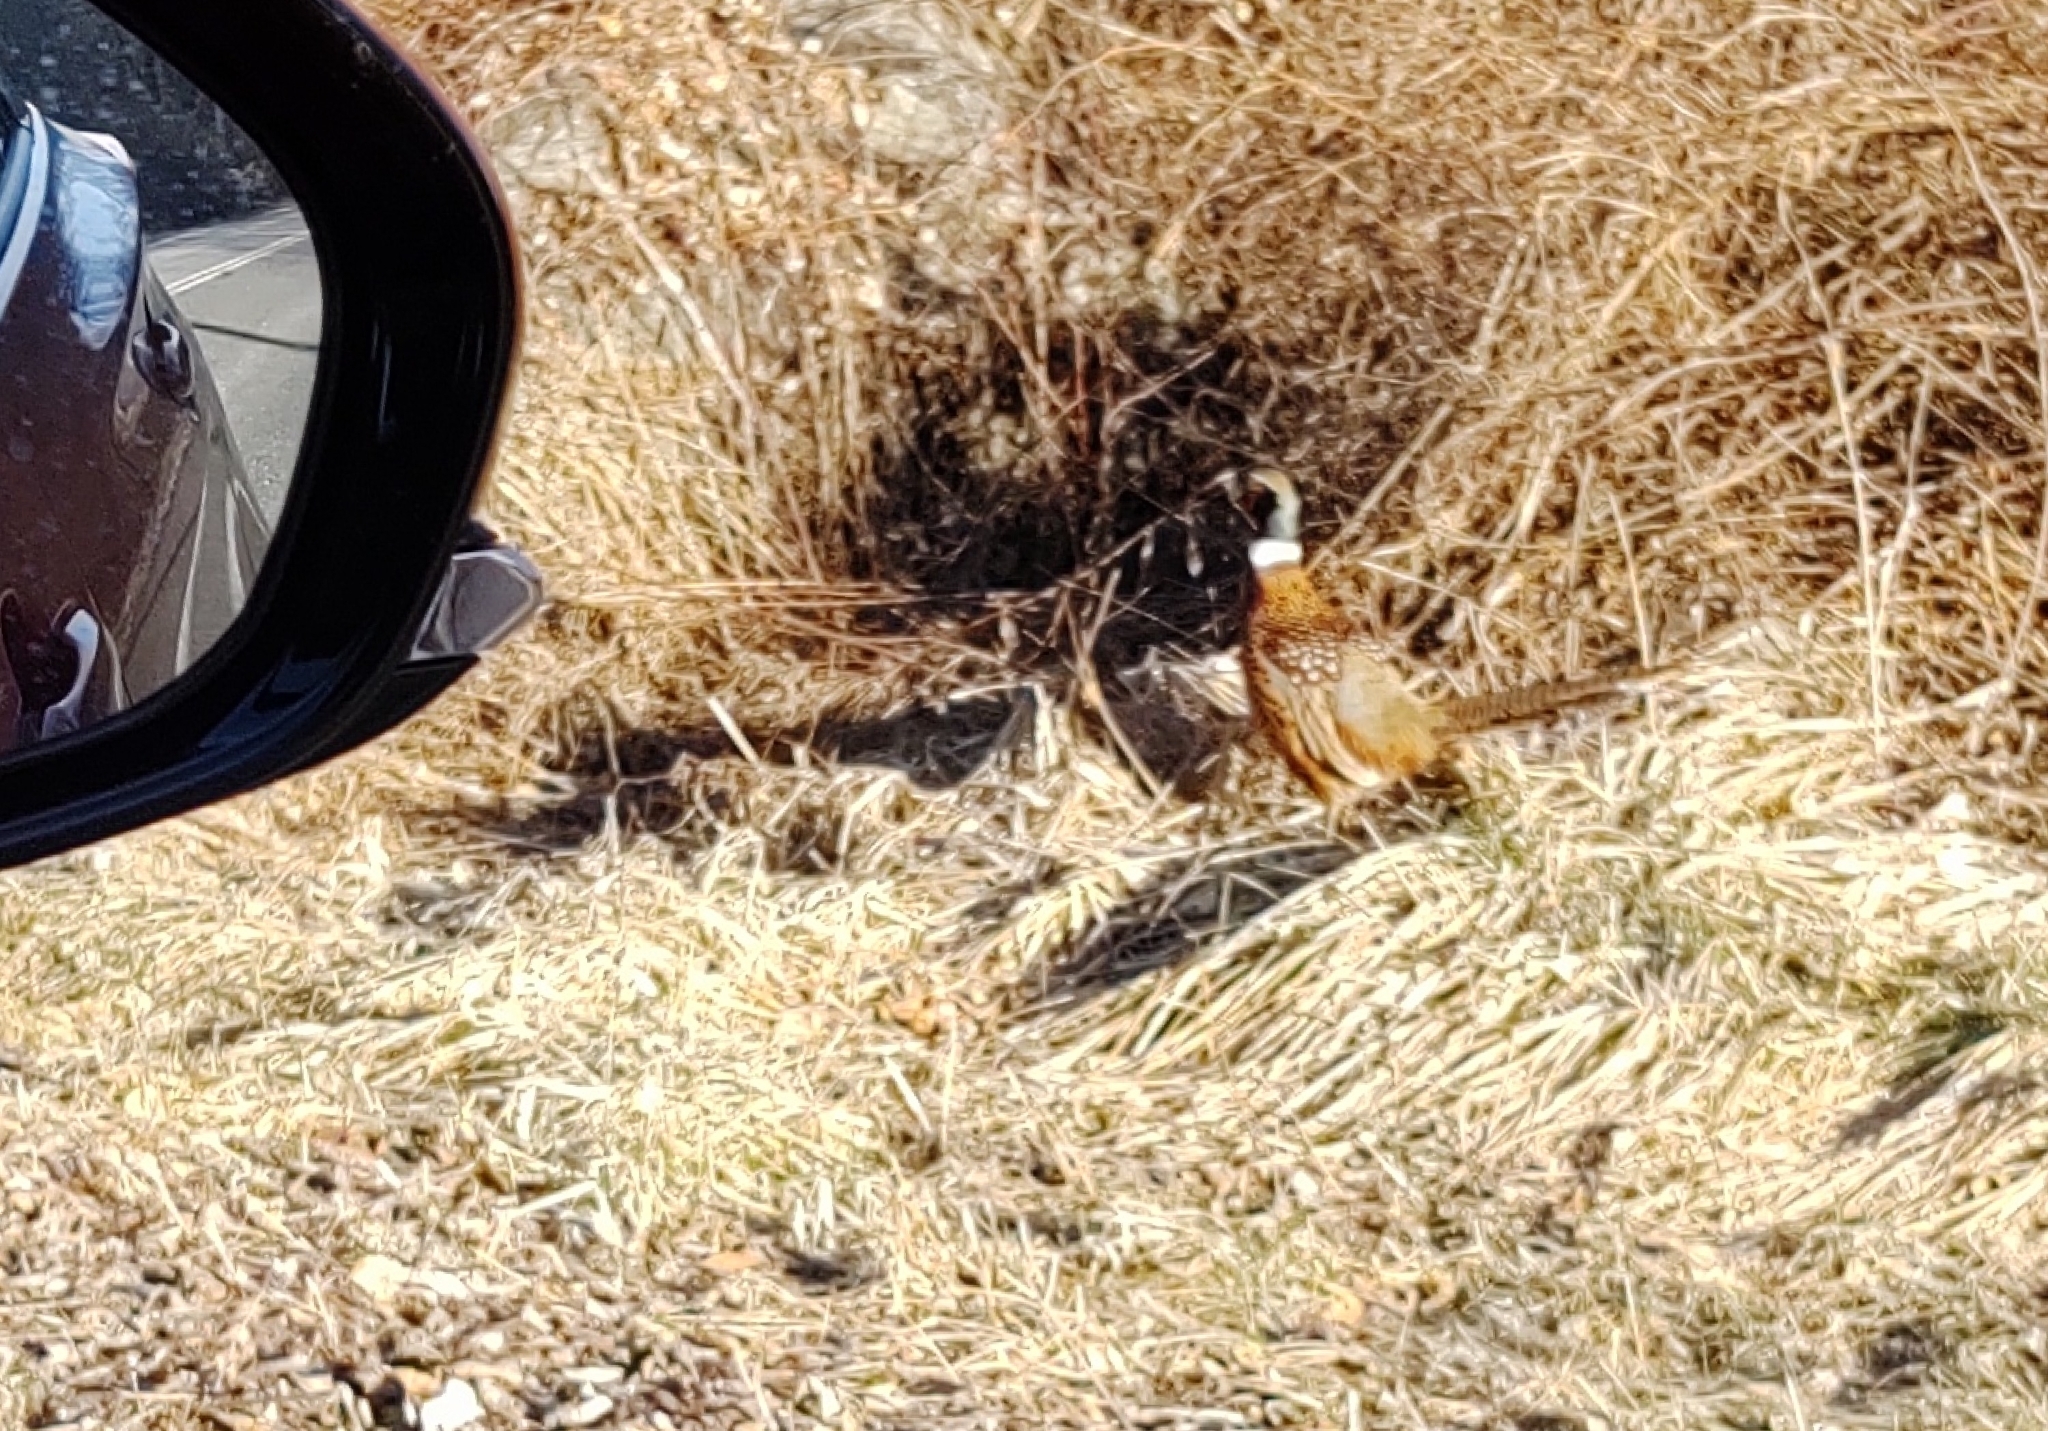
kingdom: Animalia
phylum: Chordata
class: Aves
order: Galliformes
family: Phasianidae
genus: Phasianus
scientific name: Phasianus colchicus
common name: Common pheasant
